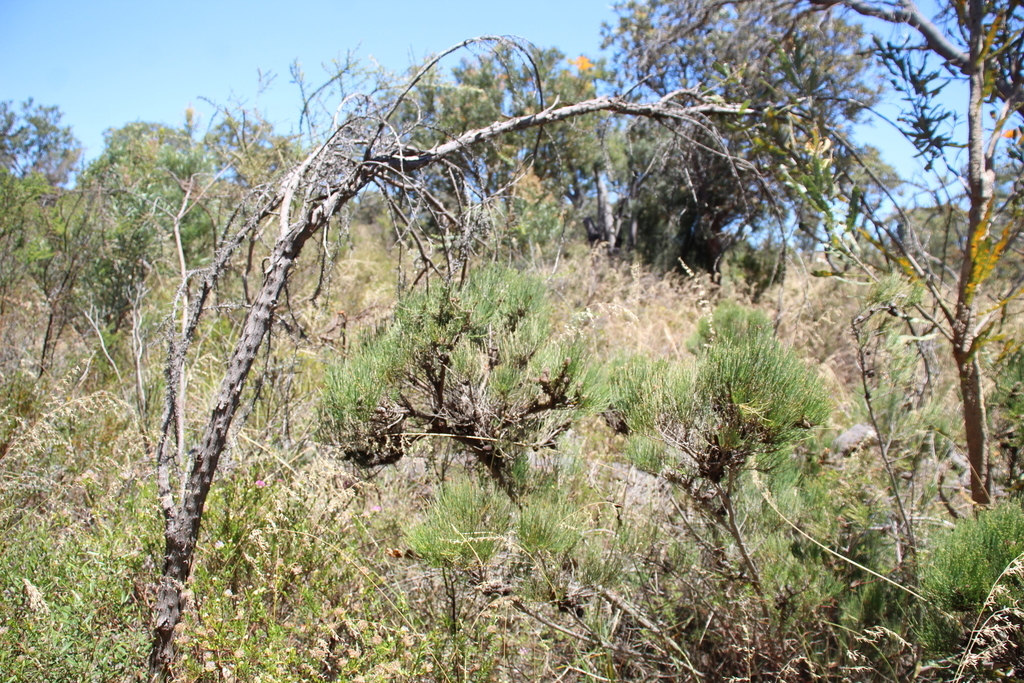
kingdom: Plantae
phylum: Tracheophyta
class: Magnoliopsida
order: Fagales
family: Casuarinaceae
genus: Allocasuarina
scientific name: Allocasuarina humilis
